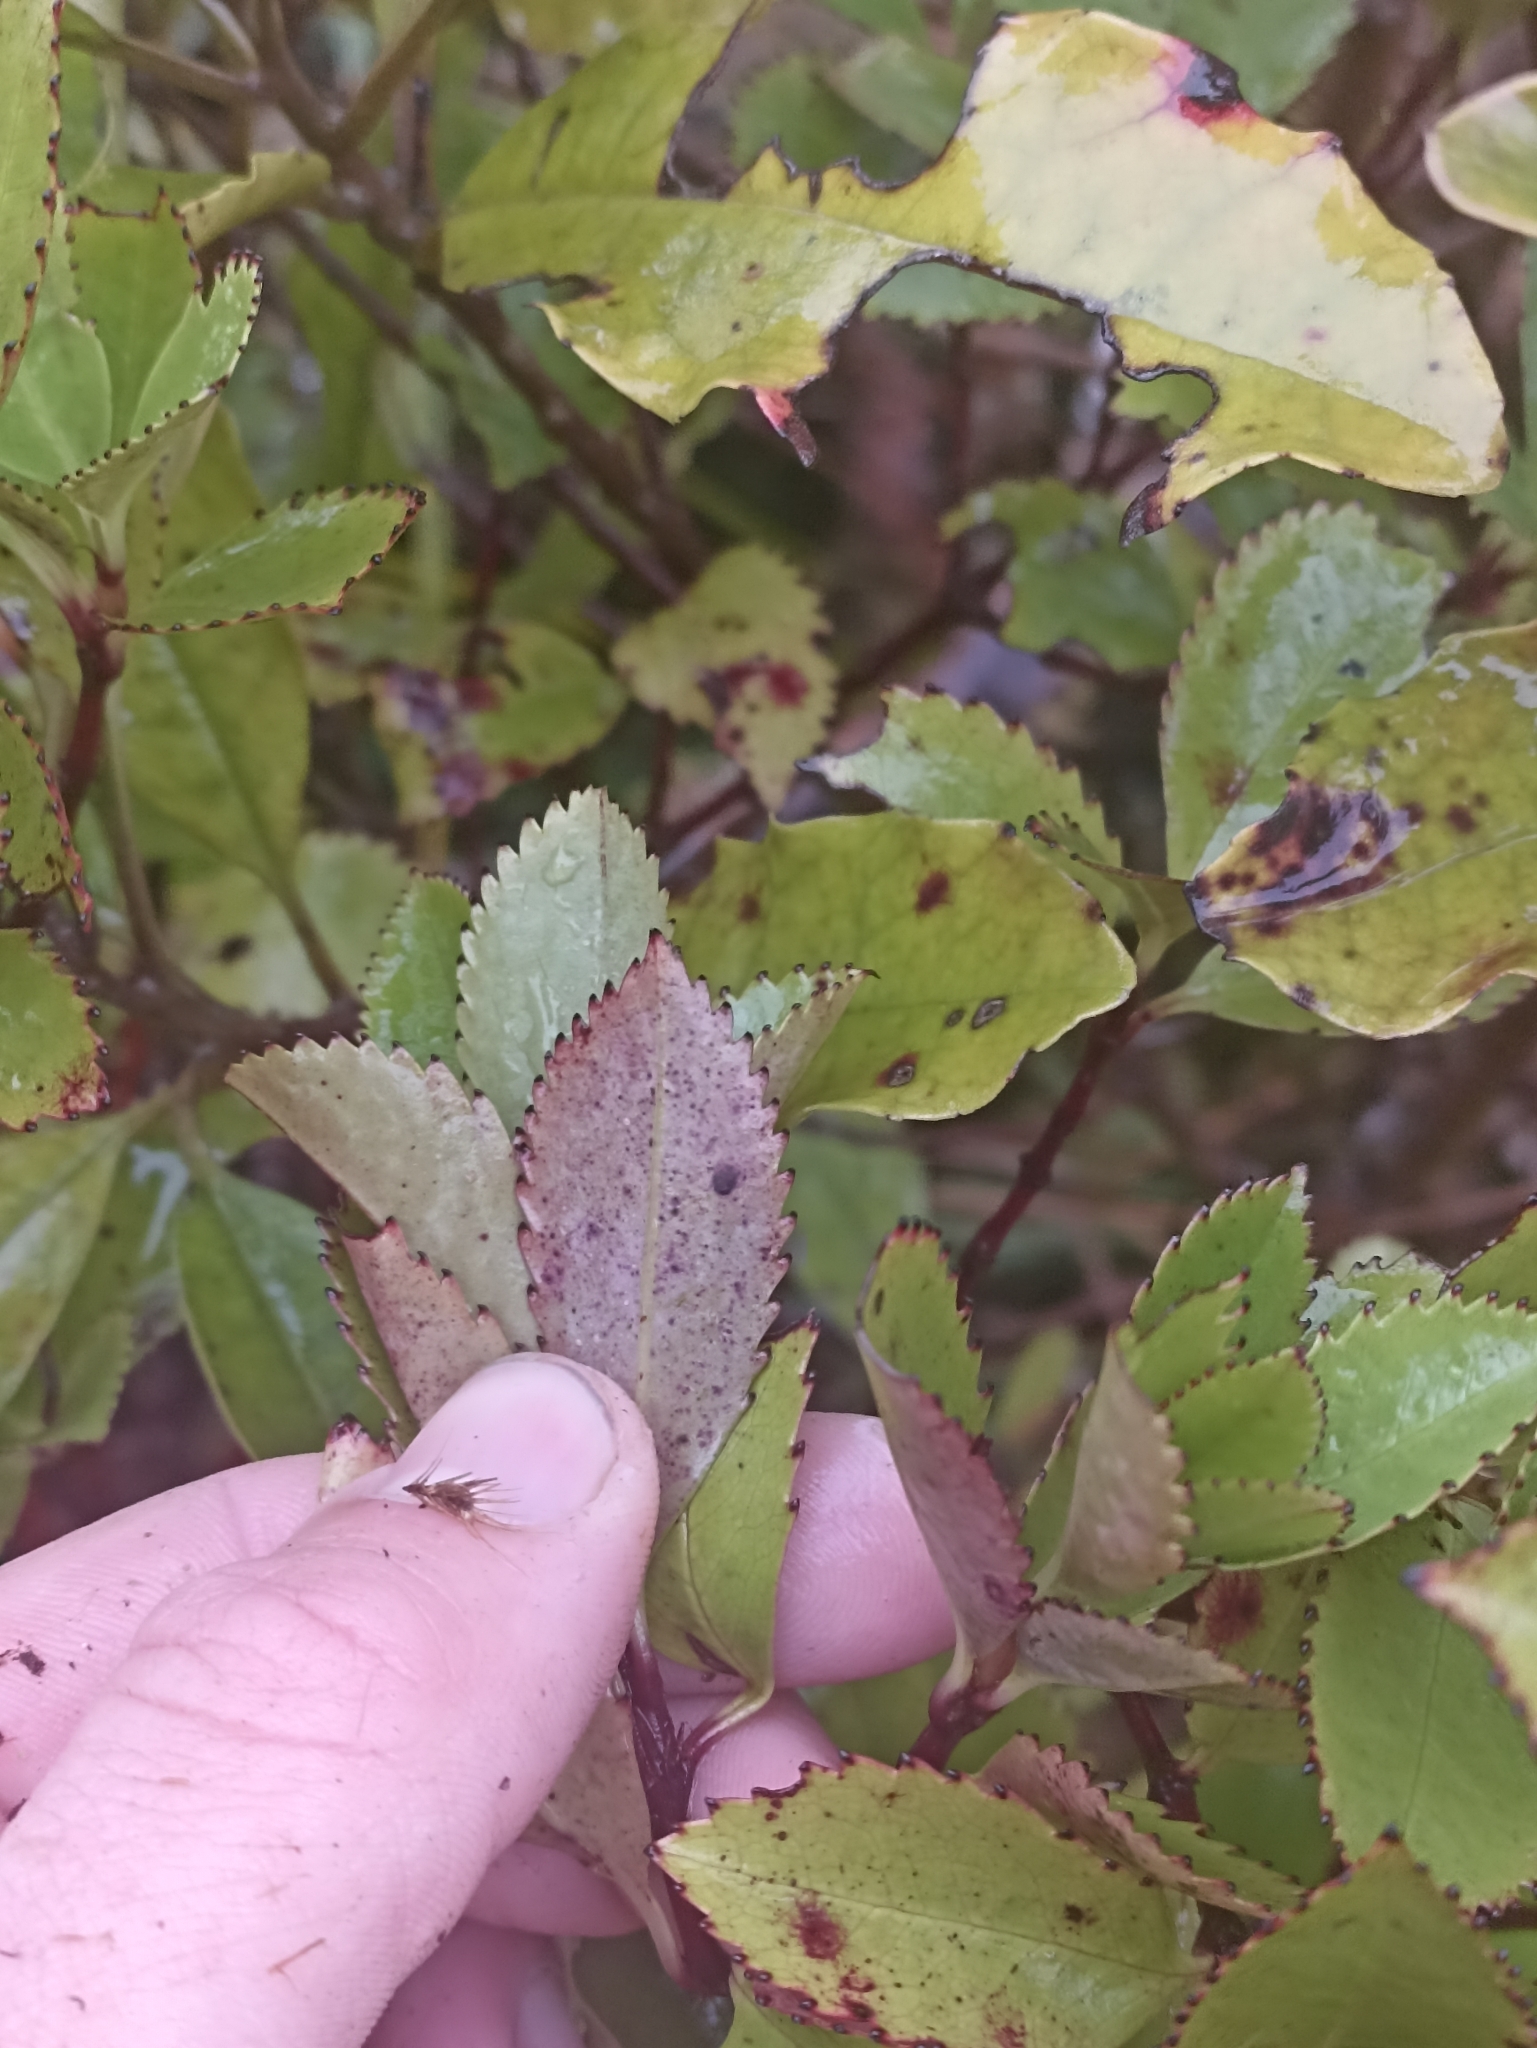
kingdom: Plantae
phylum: Tracheophyta
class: Magnoliopsida
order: Chloranthales
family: Chloranthaceae
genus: Ascarina
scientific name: Ascarina lucida
